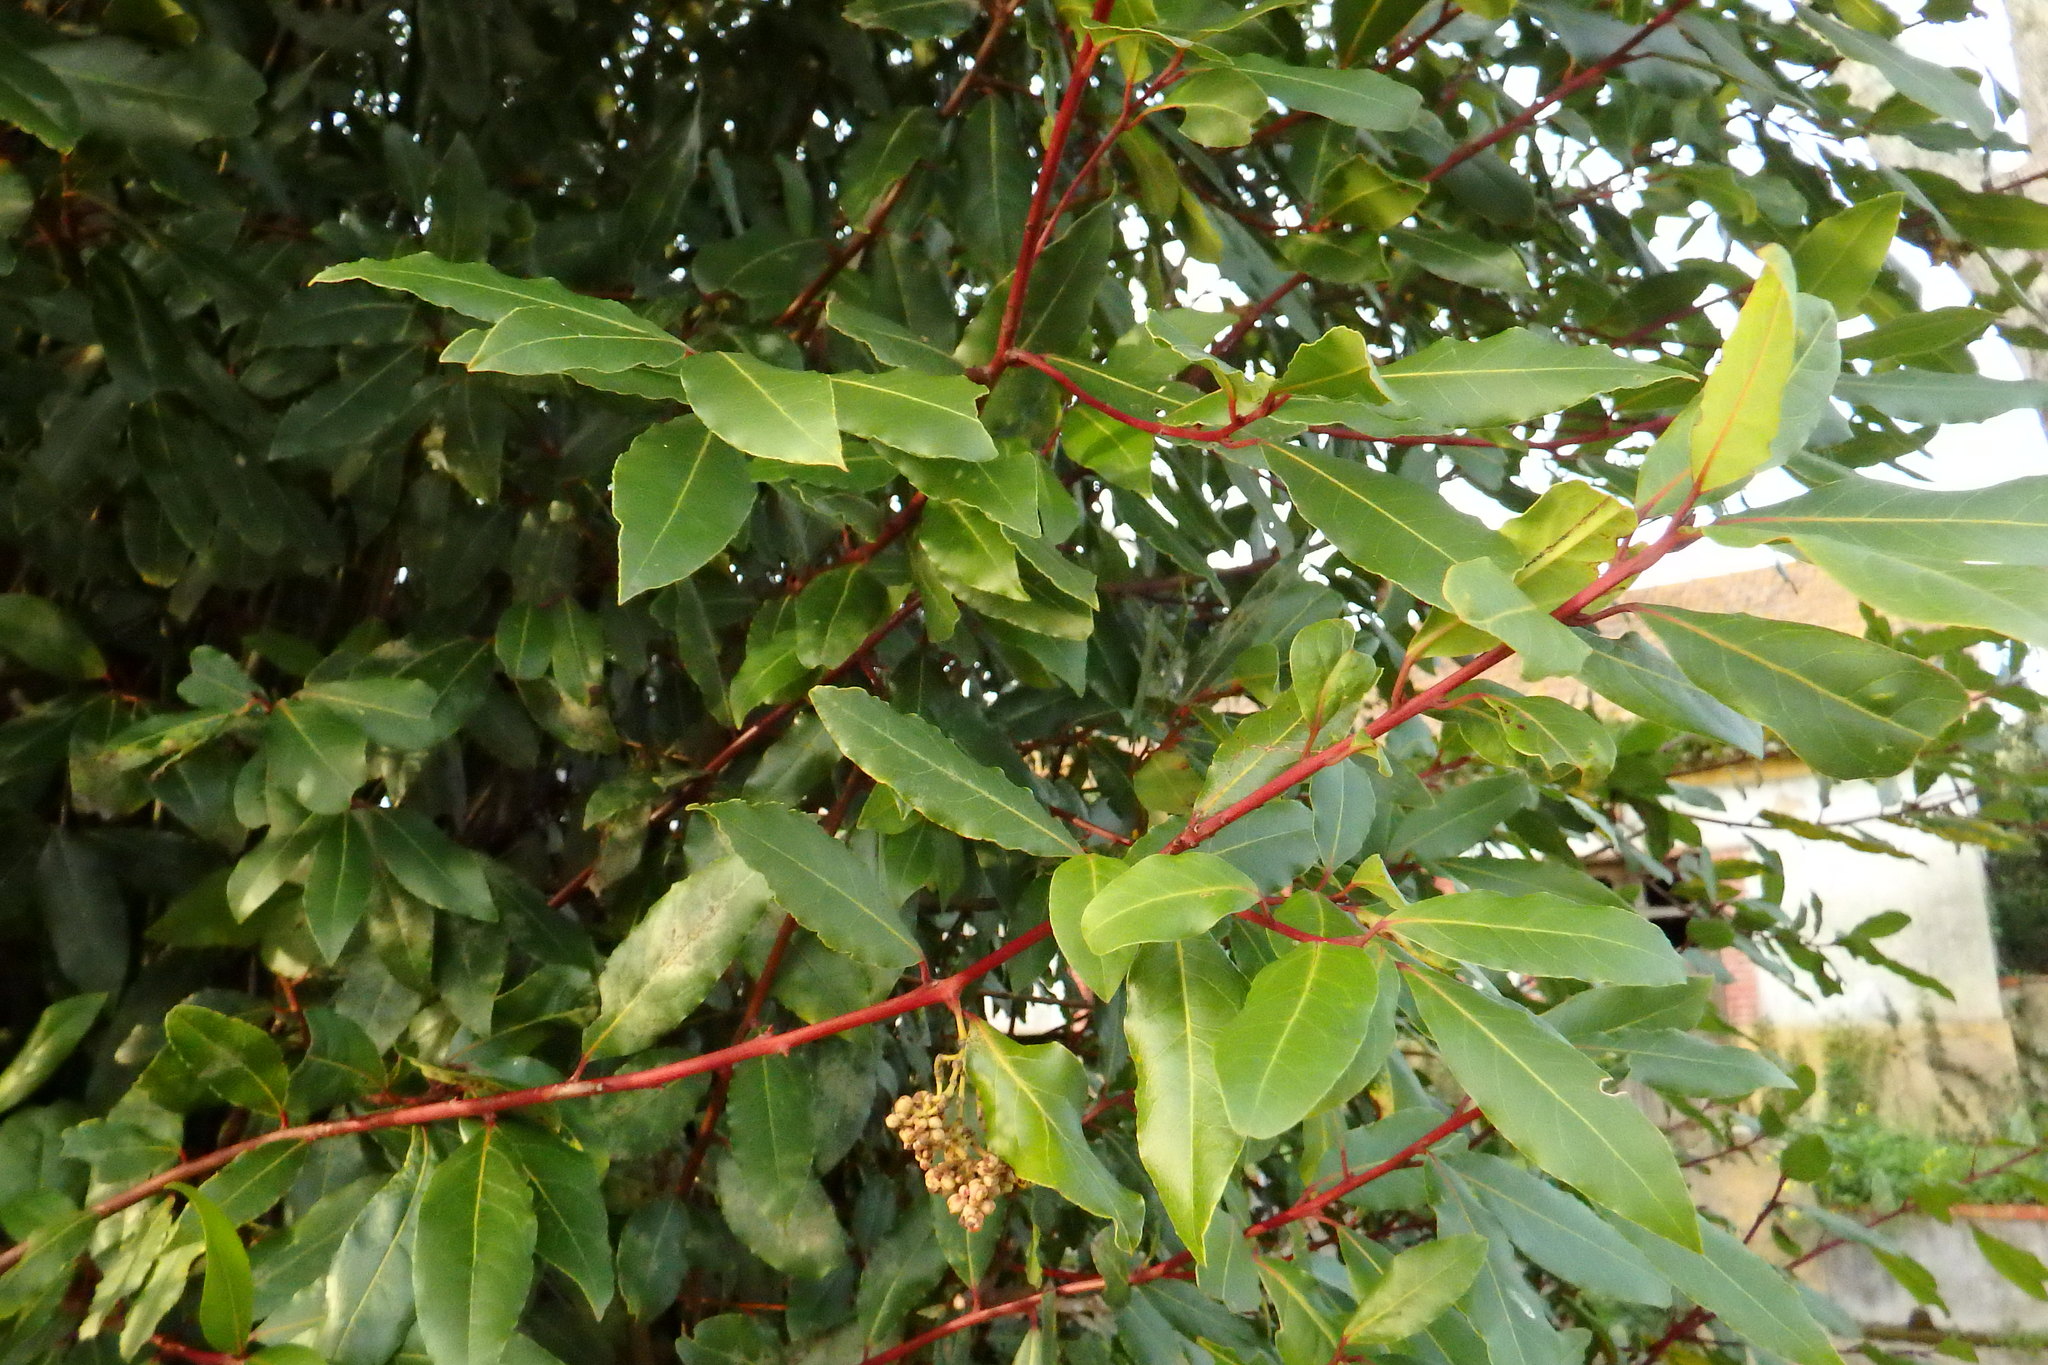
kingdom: Plantae
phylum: Tracheophyta
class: Magnoliopsida
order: Laurales
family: Lauraceae
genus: Laurus
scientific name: Laurus nobilis
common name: Bay
